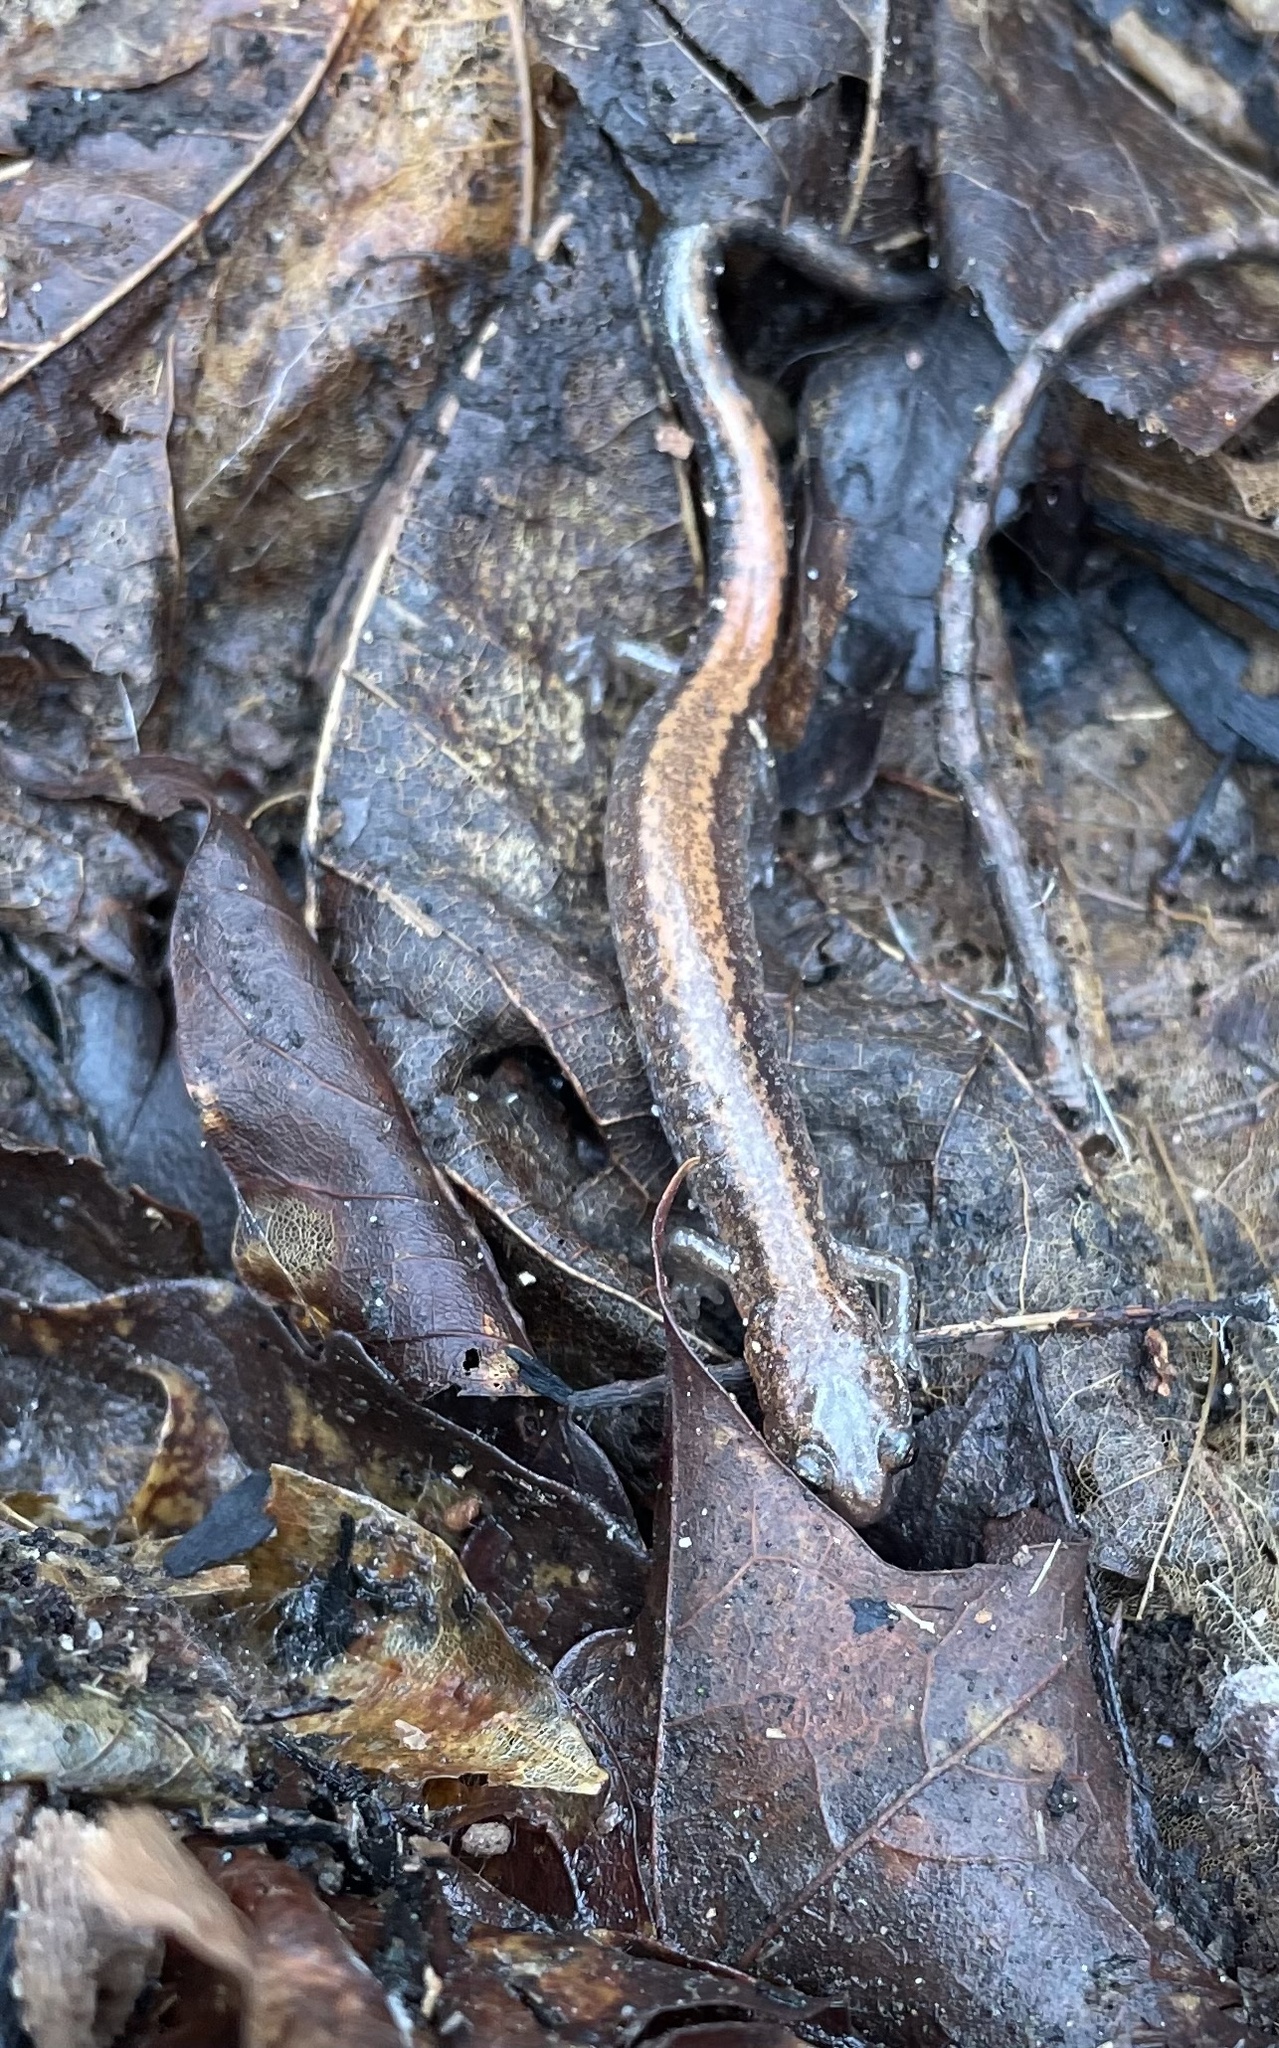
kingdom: Animalia
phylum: Chordata
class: Amphibia
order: Caudata
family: Plethodontidae
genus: Plethodon
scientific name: Plethodon cinereus
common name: Redback salamander
